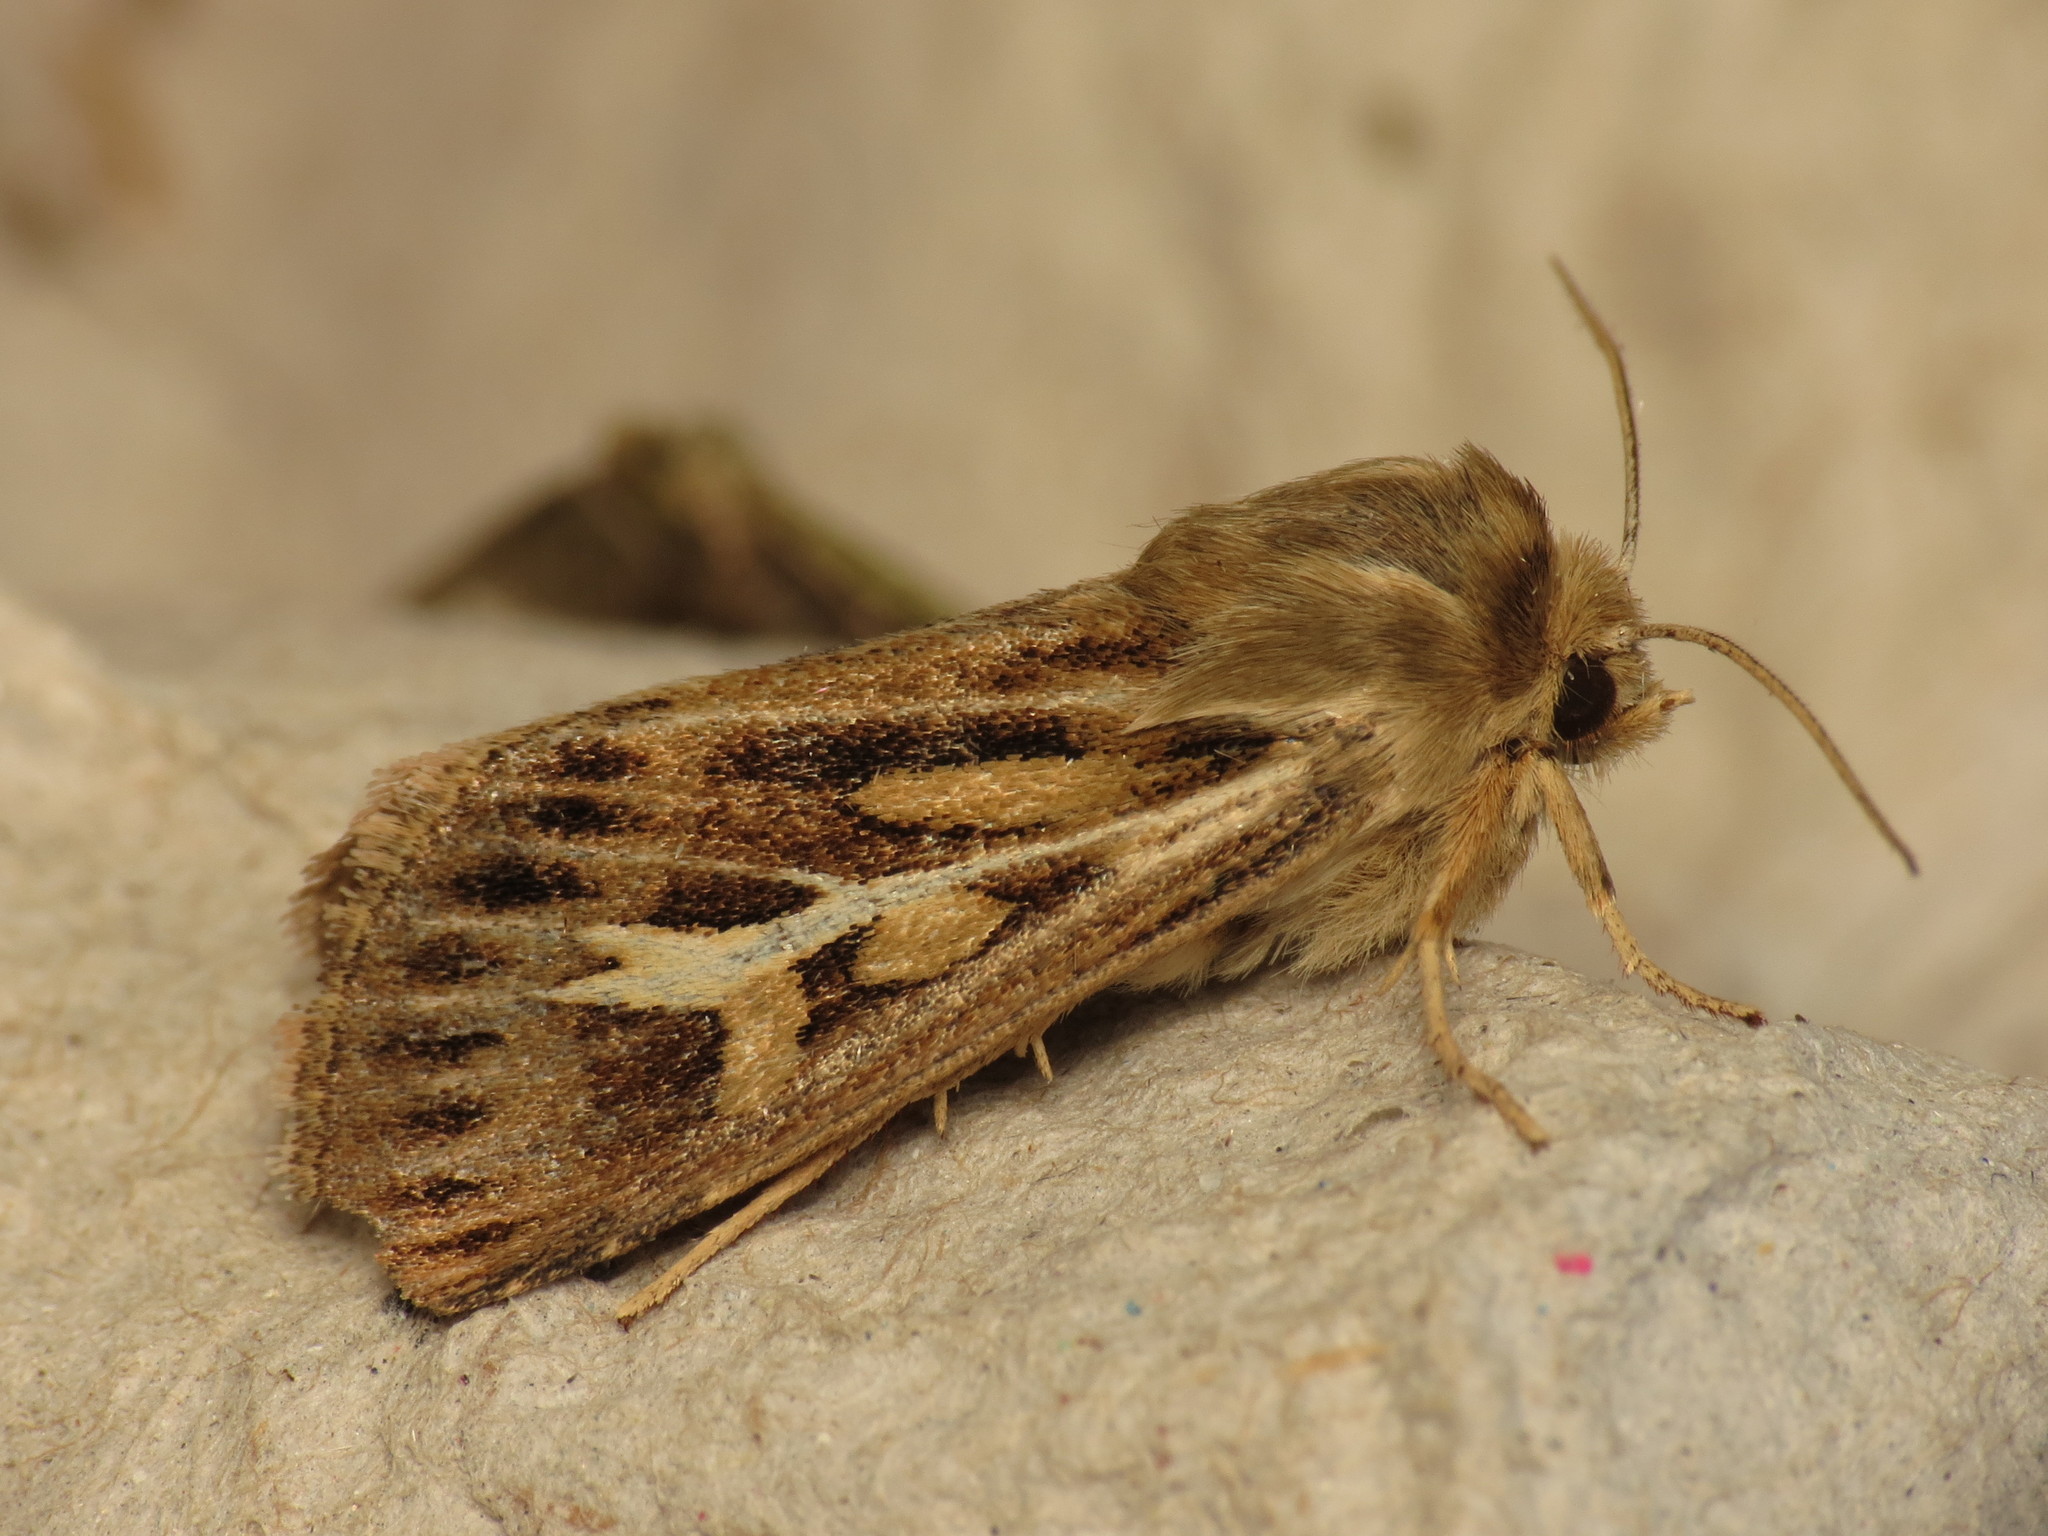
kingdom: Animalia
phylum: Arthropoda
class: Insecta
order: Lepidoptera
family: Noctuidae
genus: Cerapteryx
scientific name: Cerapteryx graminis
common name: Antler moth
